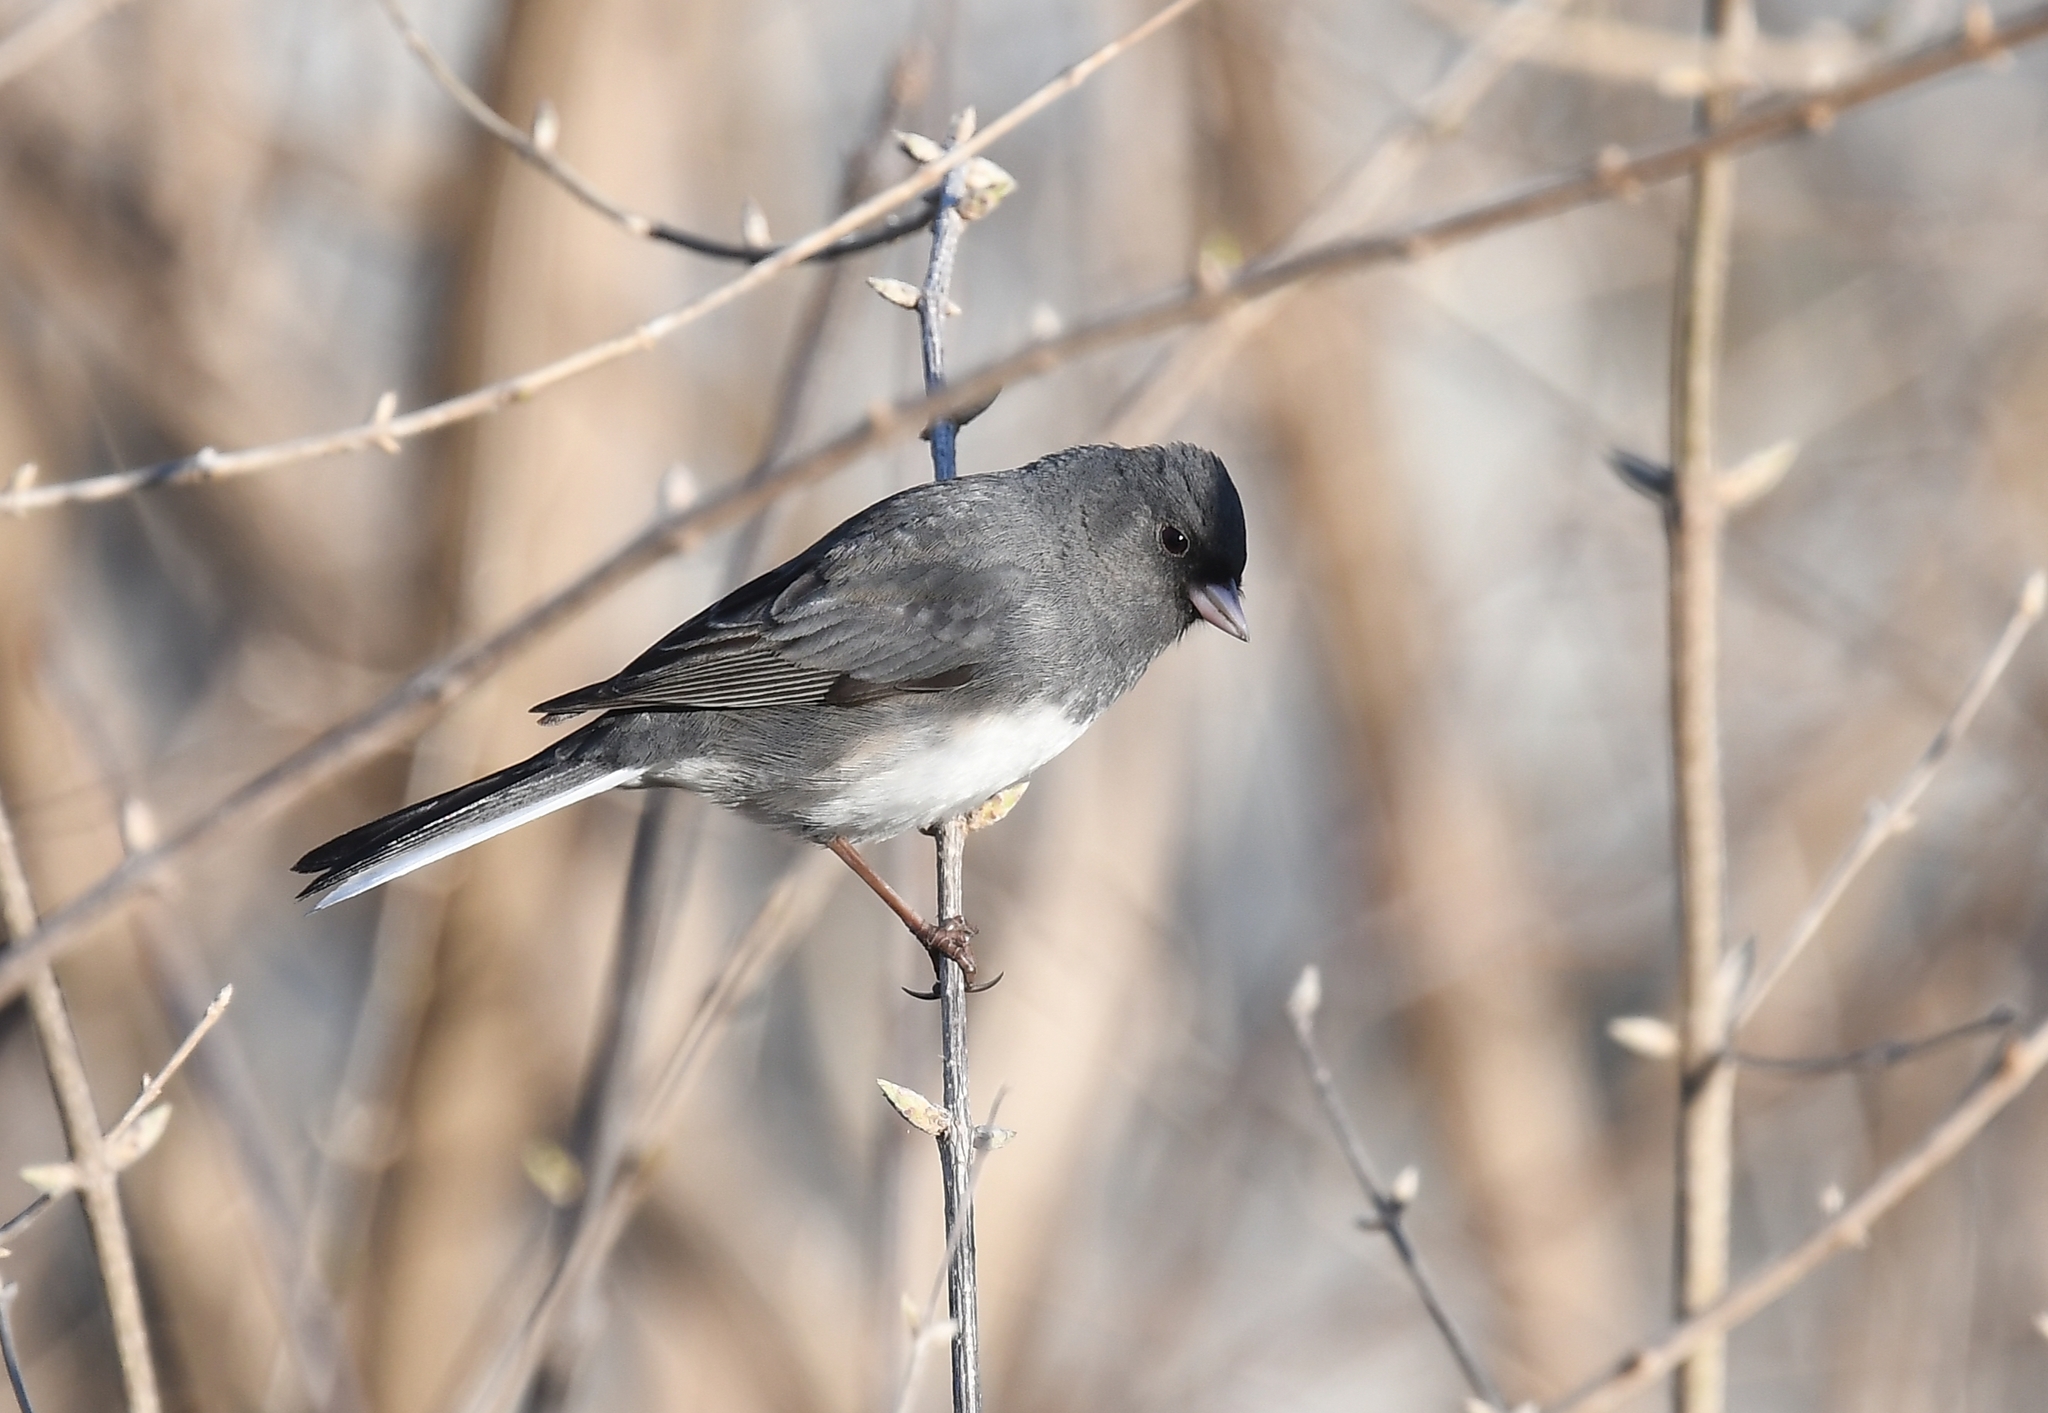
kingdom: Animalia
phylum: Chordata
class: Aves
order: Passeriformes
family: Passerellidae
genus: Junco
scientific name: Junco hyemalis
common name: Dark-eyed junco
